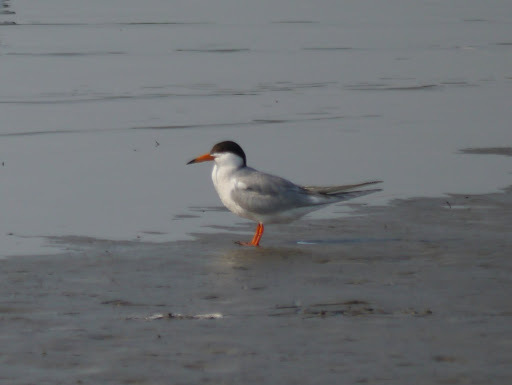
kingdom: Animalia
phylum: Chordata
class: Aves
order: Charadriiformes
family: Laridae
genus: Sterna
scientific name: Sterna forsteri
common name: Forster's tern
